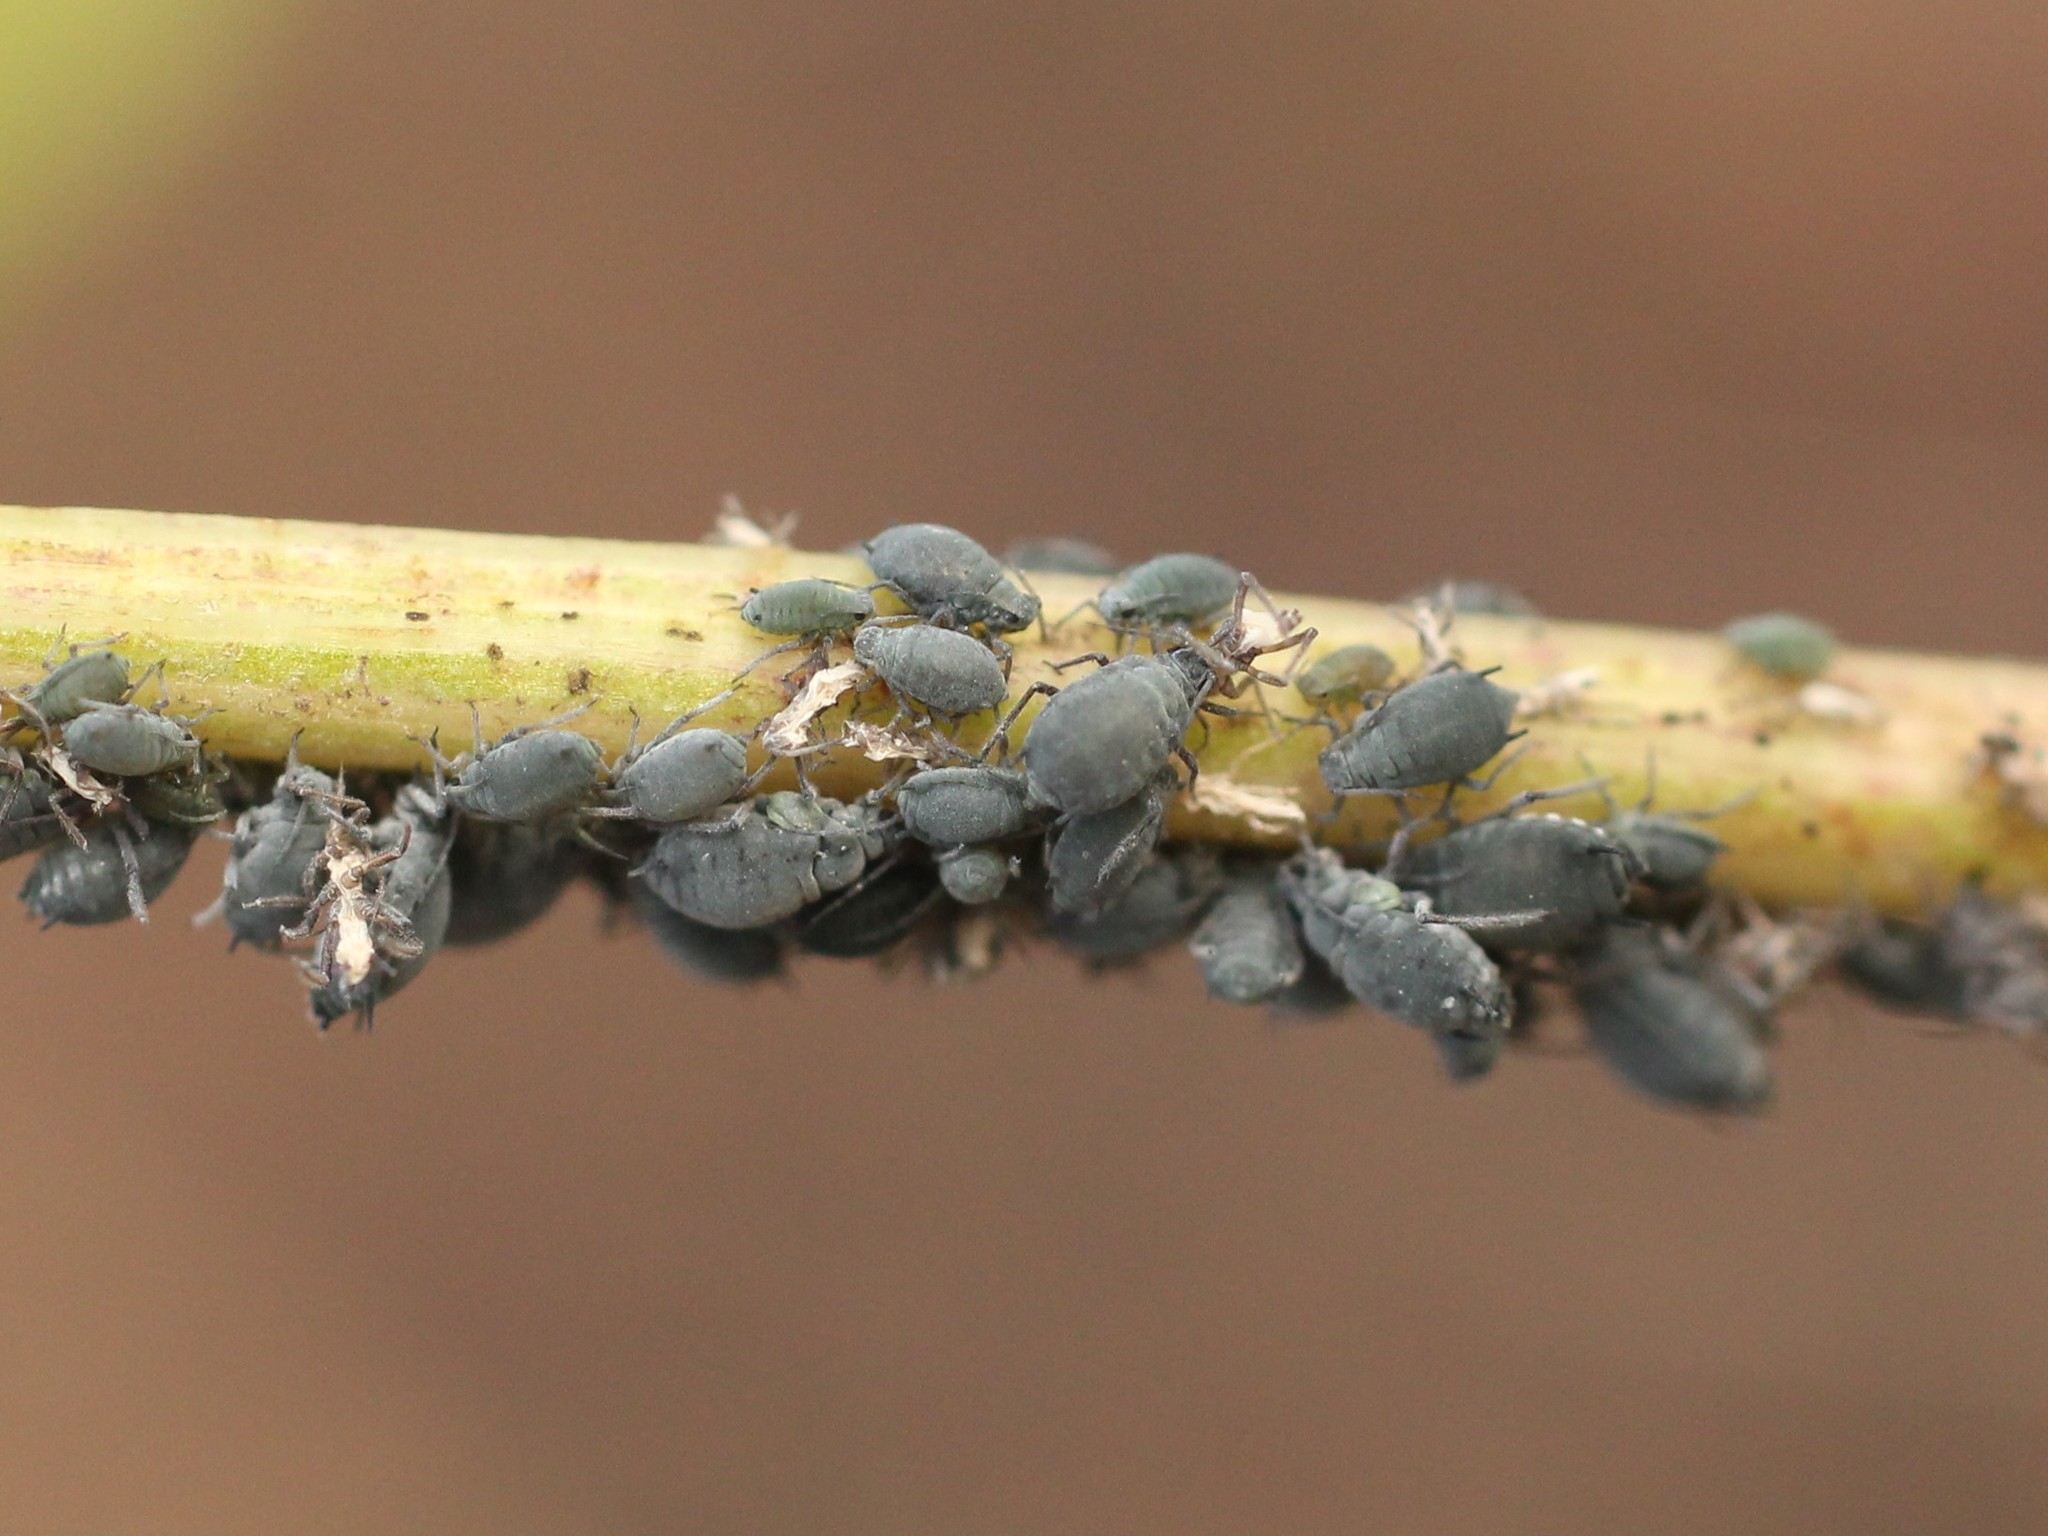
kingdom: Animalia
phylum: Arthropoda
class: Insecta
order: Hemiptera
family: Aphididae
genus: Aphis
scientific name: Aphis sambuci
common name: Elder aphid
